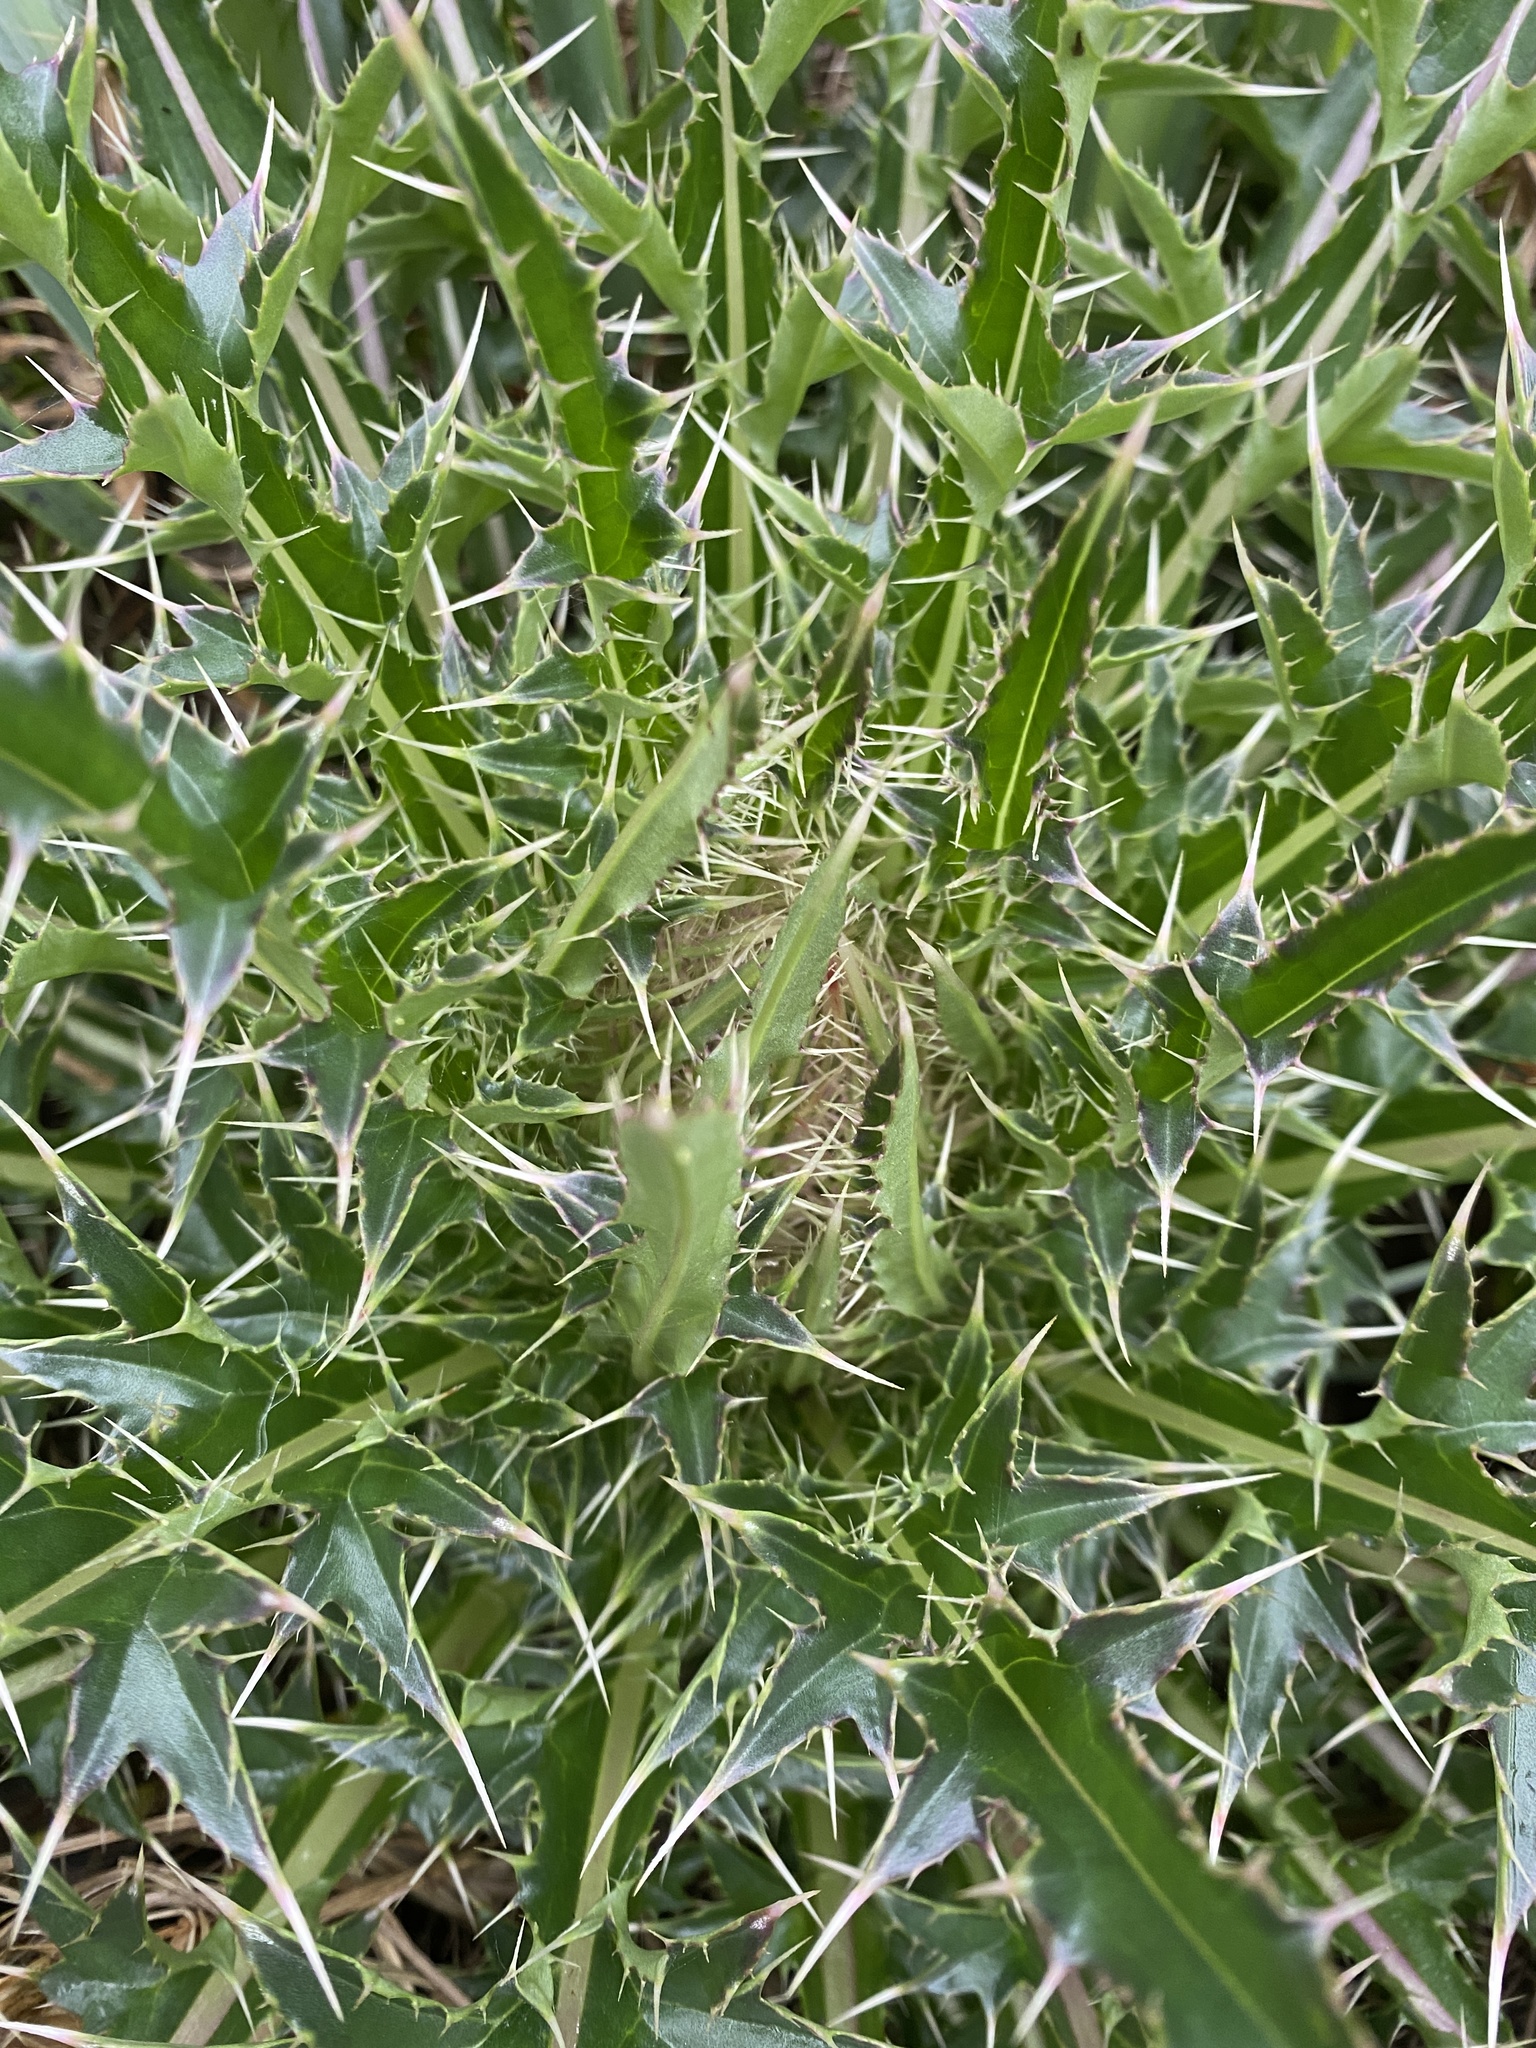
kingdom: Plantae
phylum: Tracheophyta
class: Magnoliopsida
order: Asterales
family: Asteraceae
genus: Cirsium
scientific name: Cirsium horridulum
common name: Bristly thistle
